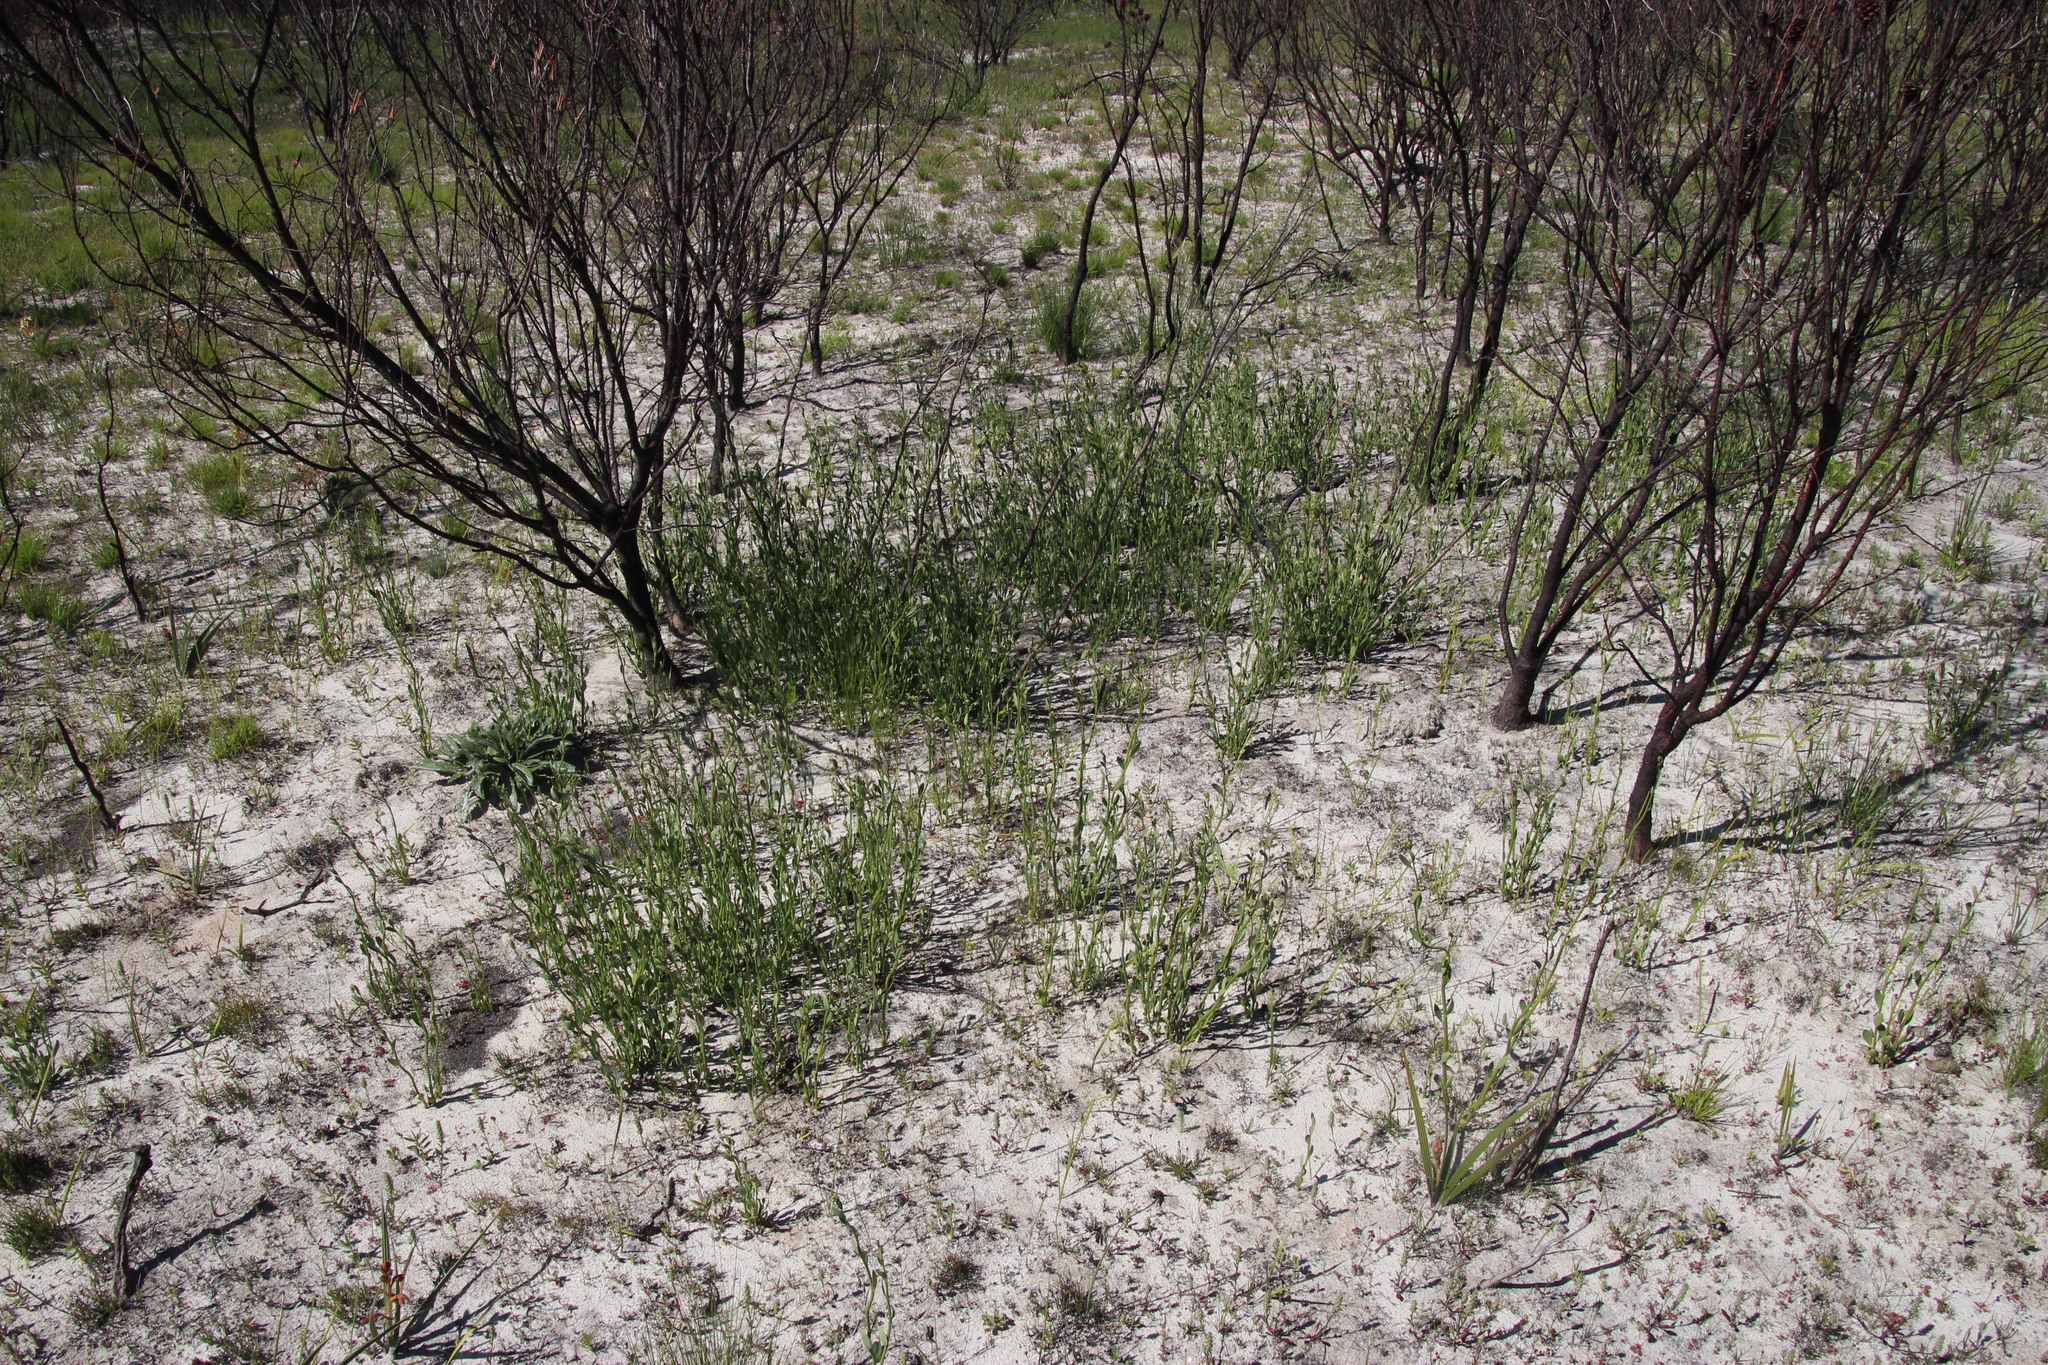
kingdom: Plantae
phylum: Tracheophyta
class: Magnoliopsida
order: Solanales
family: Montiniaceae
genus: Montinia
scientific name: Montinia caryophyllacea
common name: Wild clove-bush
